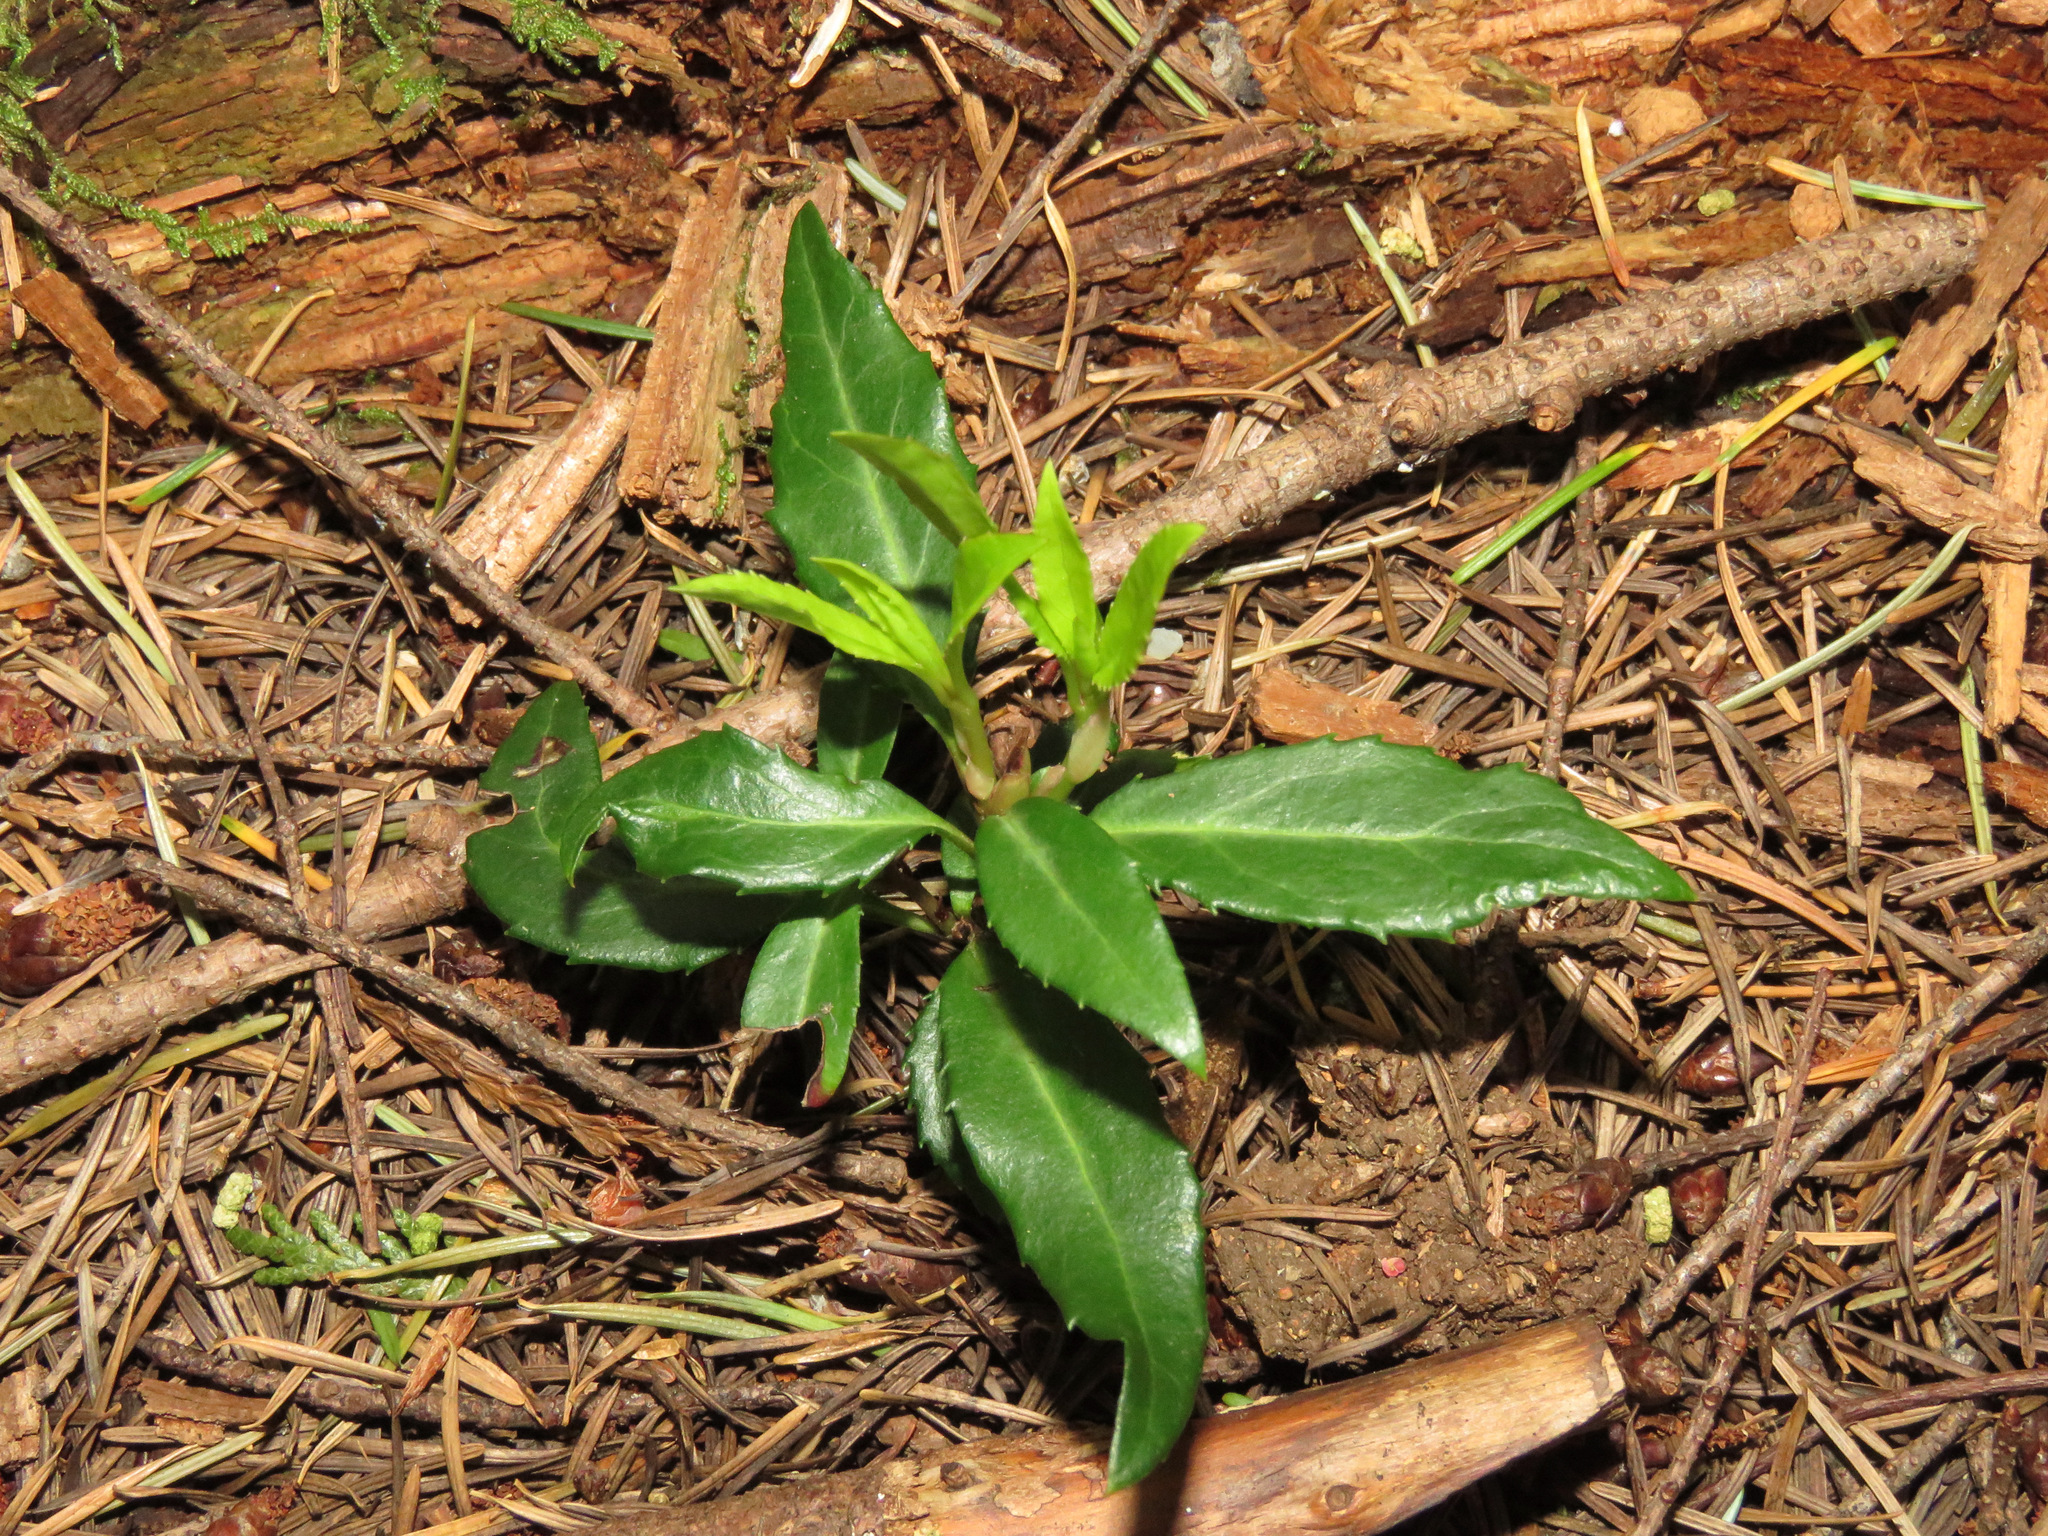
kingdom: Plantae
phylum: Tracheophyta
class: Magnoliopsida
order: Ericales
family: Ericaceae
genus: Chimaphila
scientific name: Chimaphila menziesii
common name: Menzies' pipsissewa
